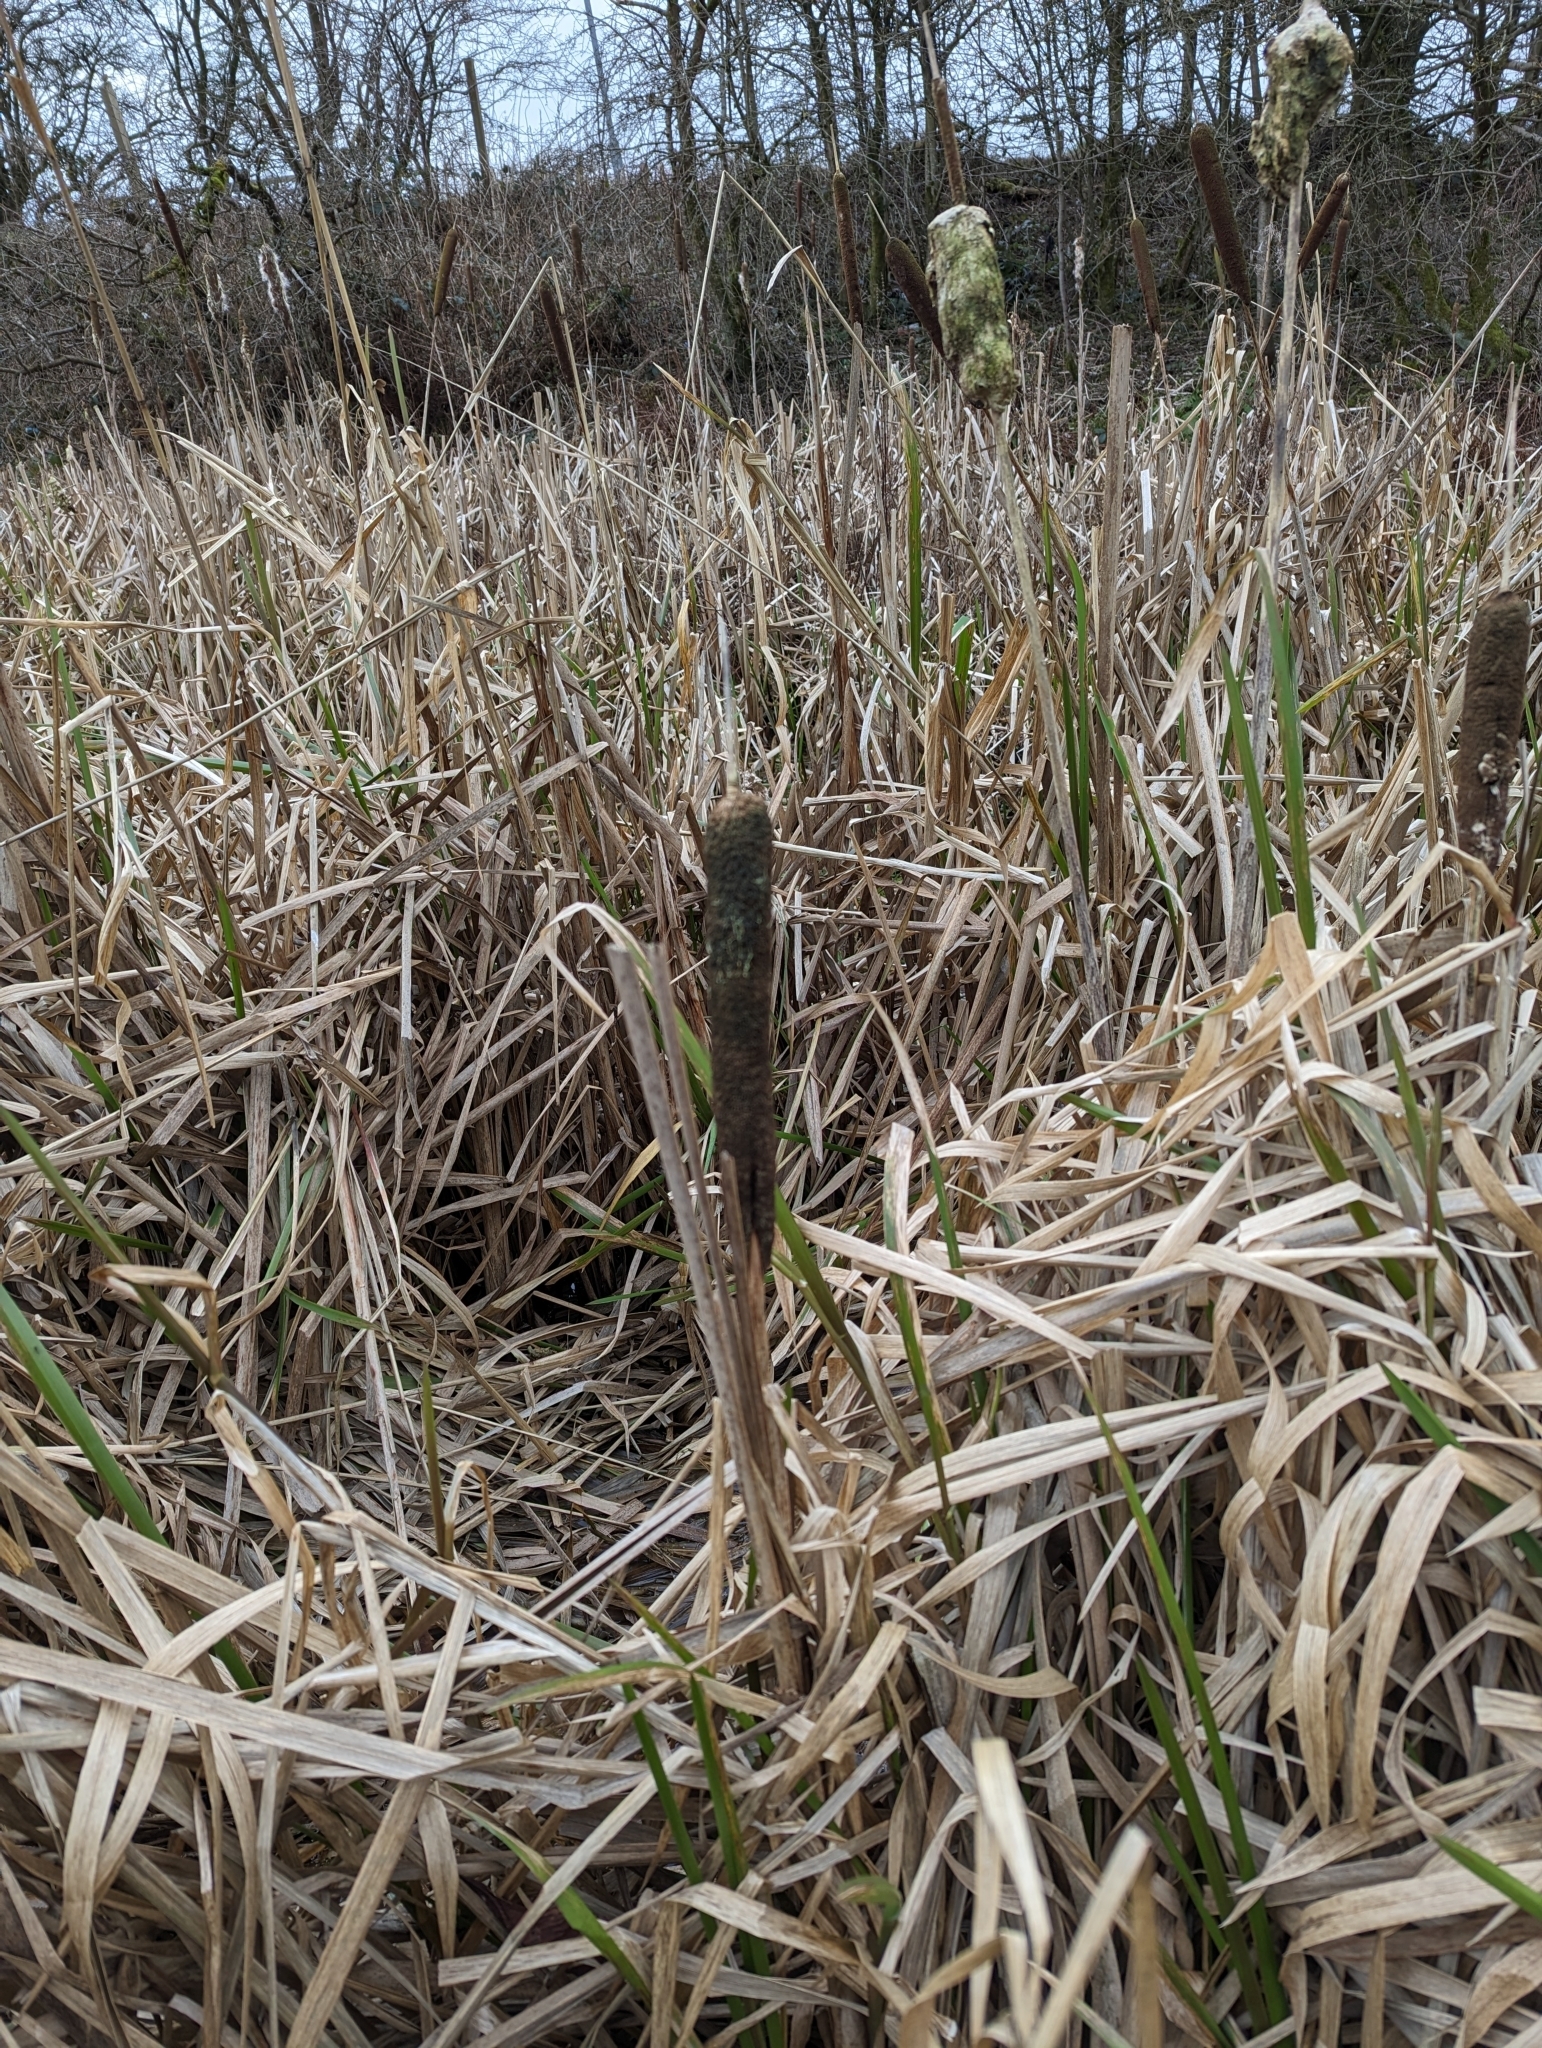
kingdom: Plantae
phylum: Tracheophyta
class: Liliopsida
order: Poales
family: Typhaceae
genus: Typha
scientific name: Typha latifolia
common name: Broadleaf cattail
